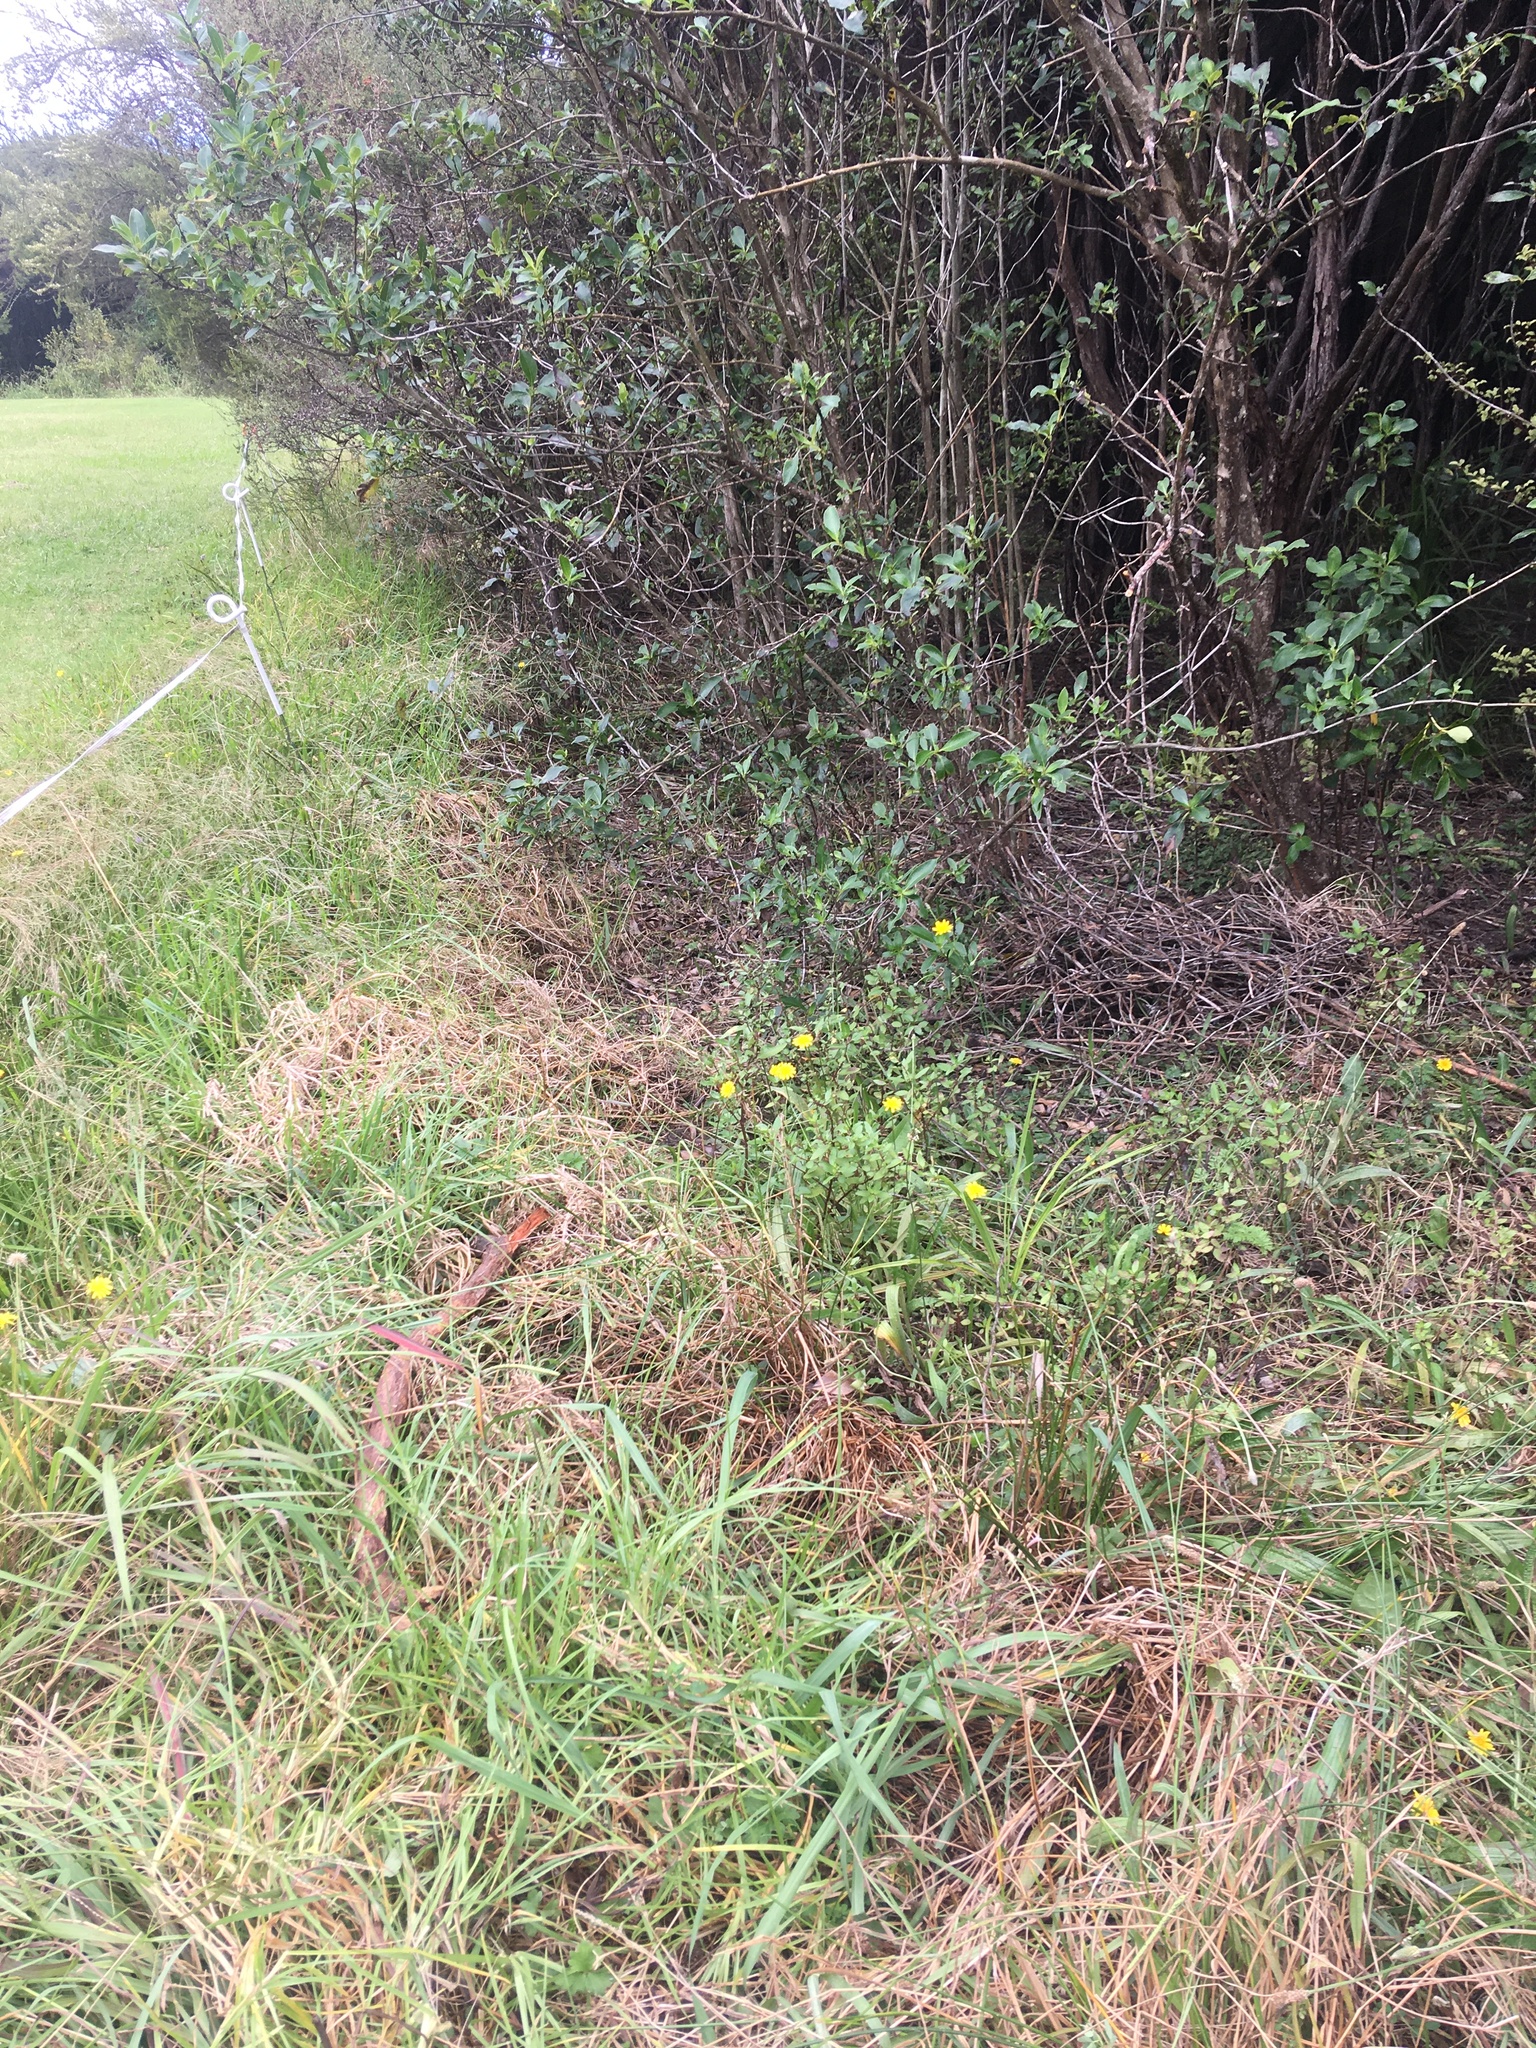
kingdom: Plantae
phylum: Tracheophyta
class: Magnoliopsida
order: Saxifragales
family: Haloragaceae
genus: Haloragis
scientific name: Haloragis erecta
